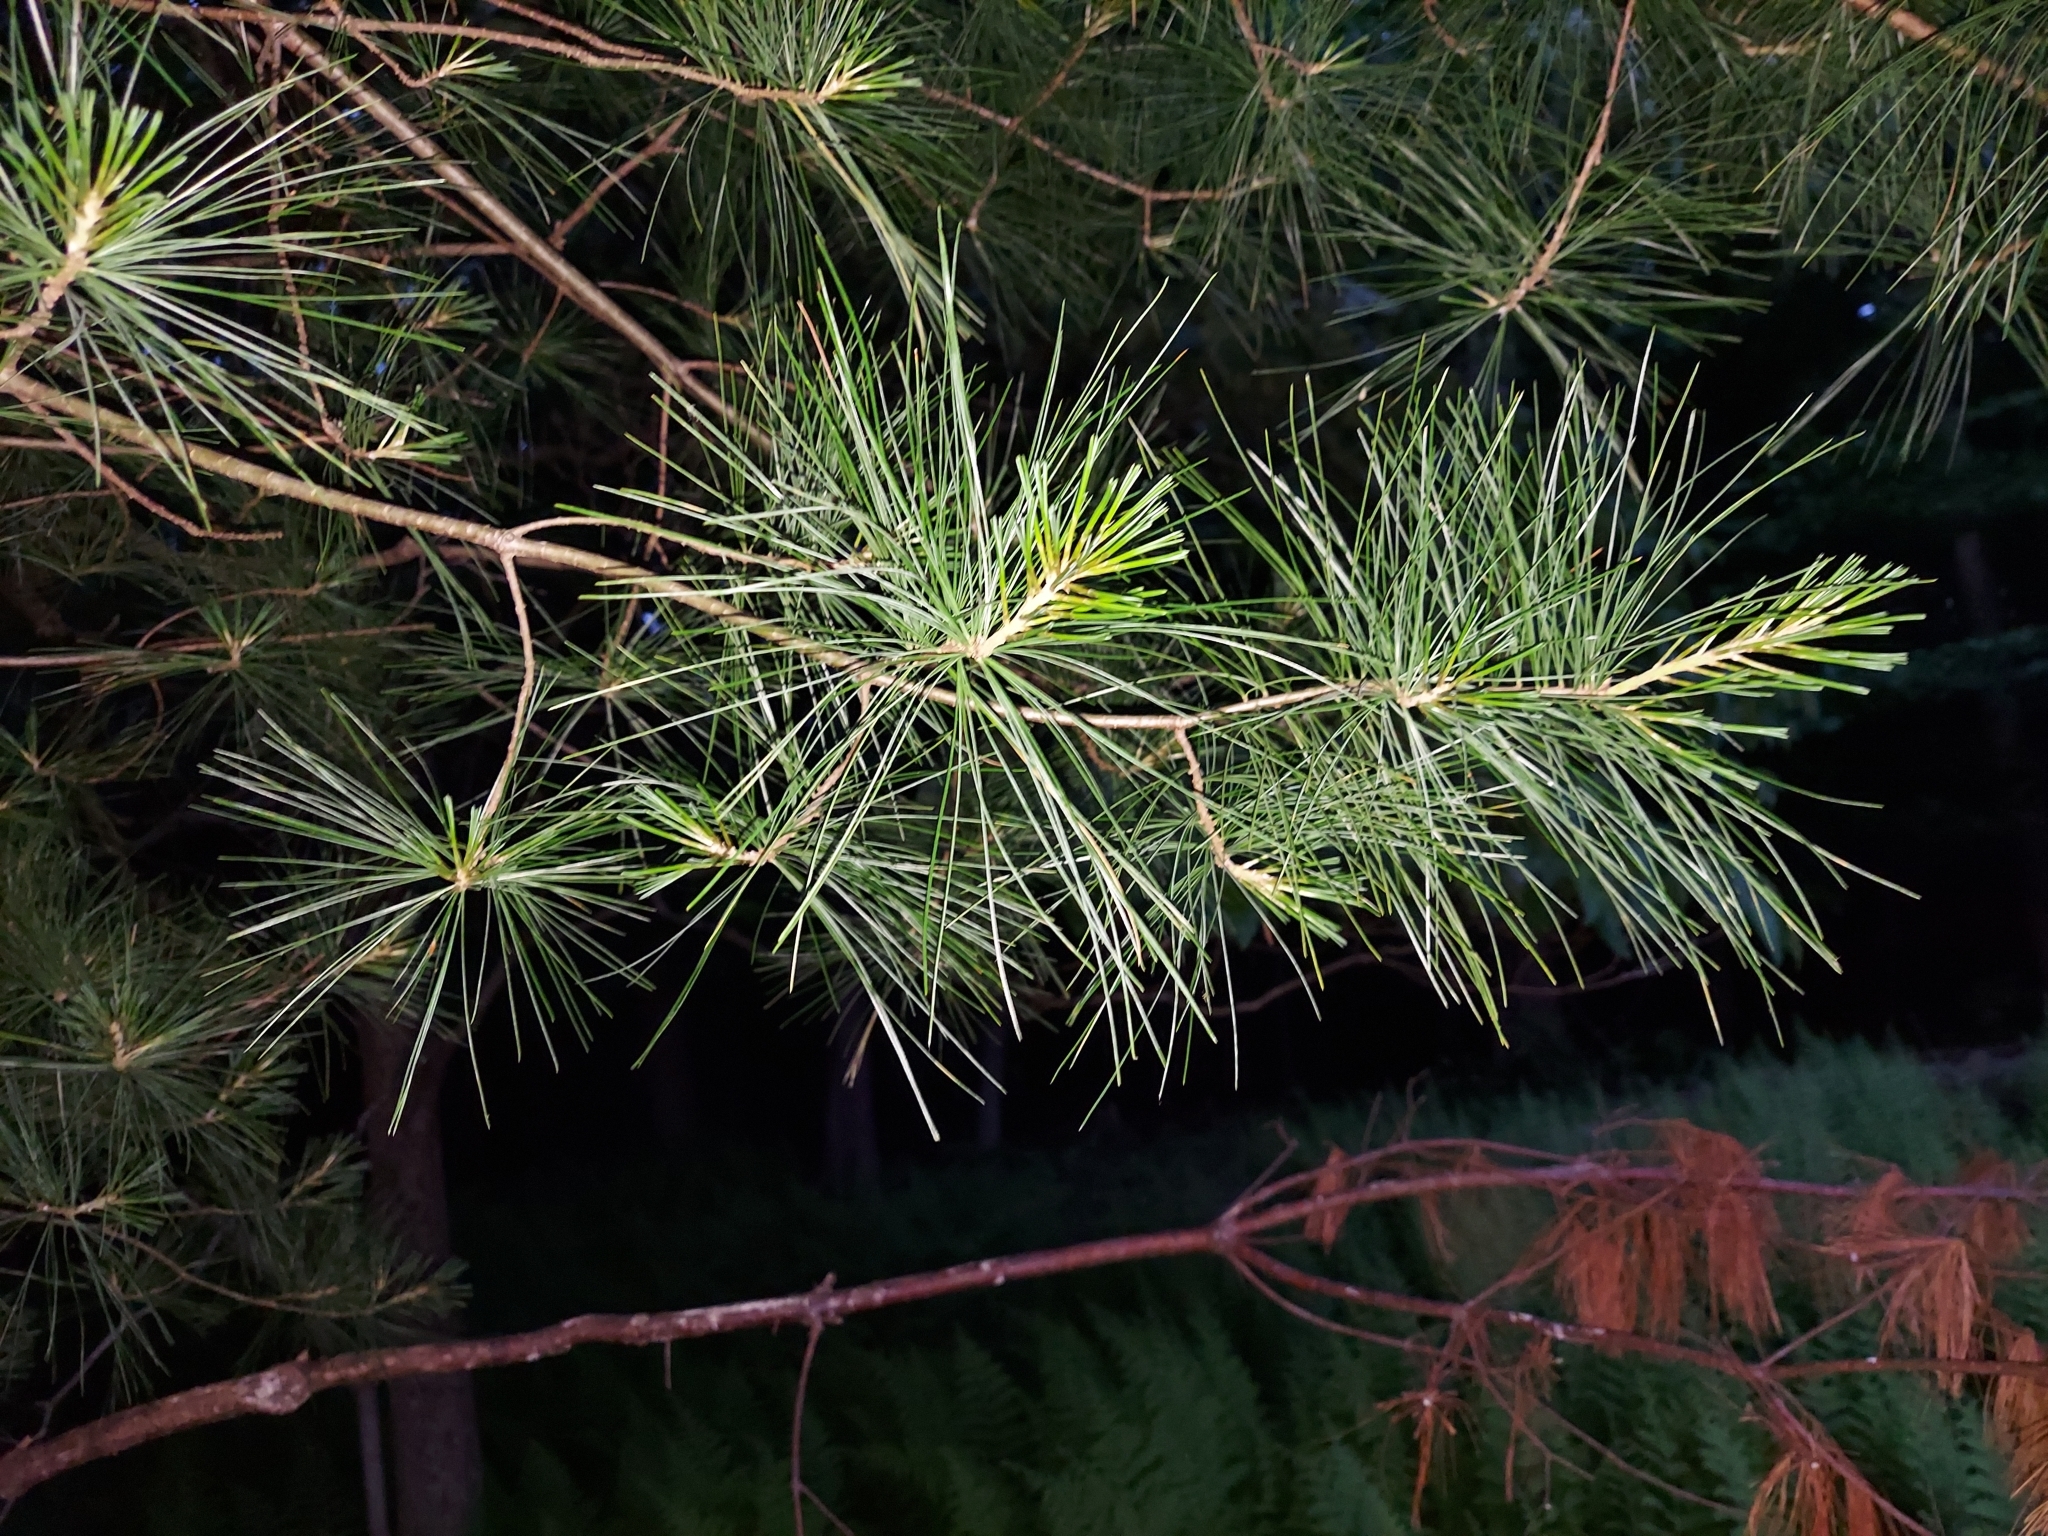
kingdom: Plantae
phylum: Tracheophyta
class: Pinopsida
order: Pinales
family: Pinaceae
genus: Pinus
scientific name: Pinus strobus
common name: Weymouth pine
